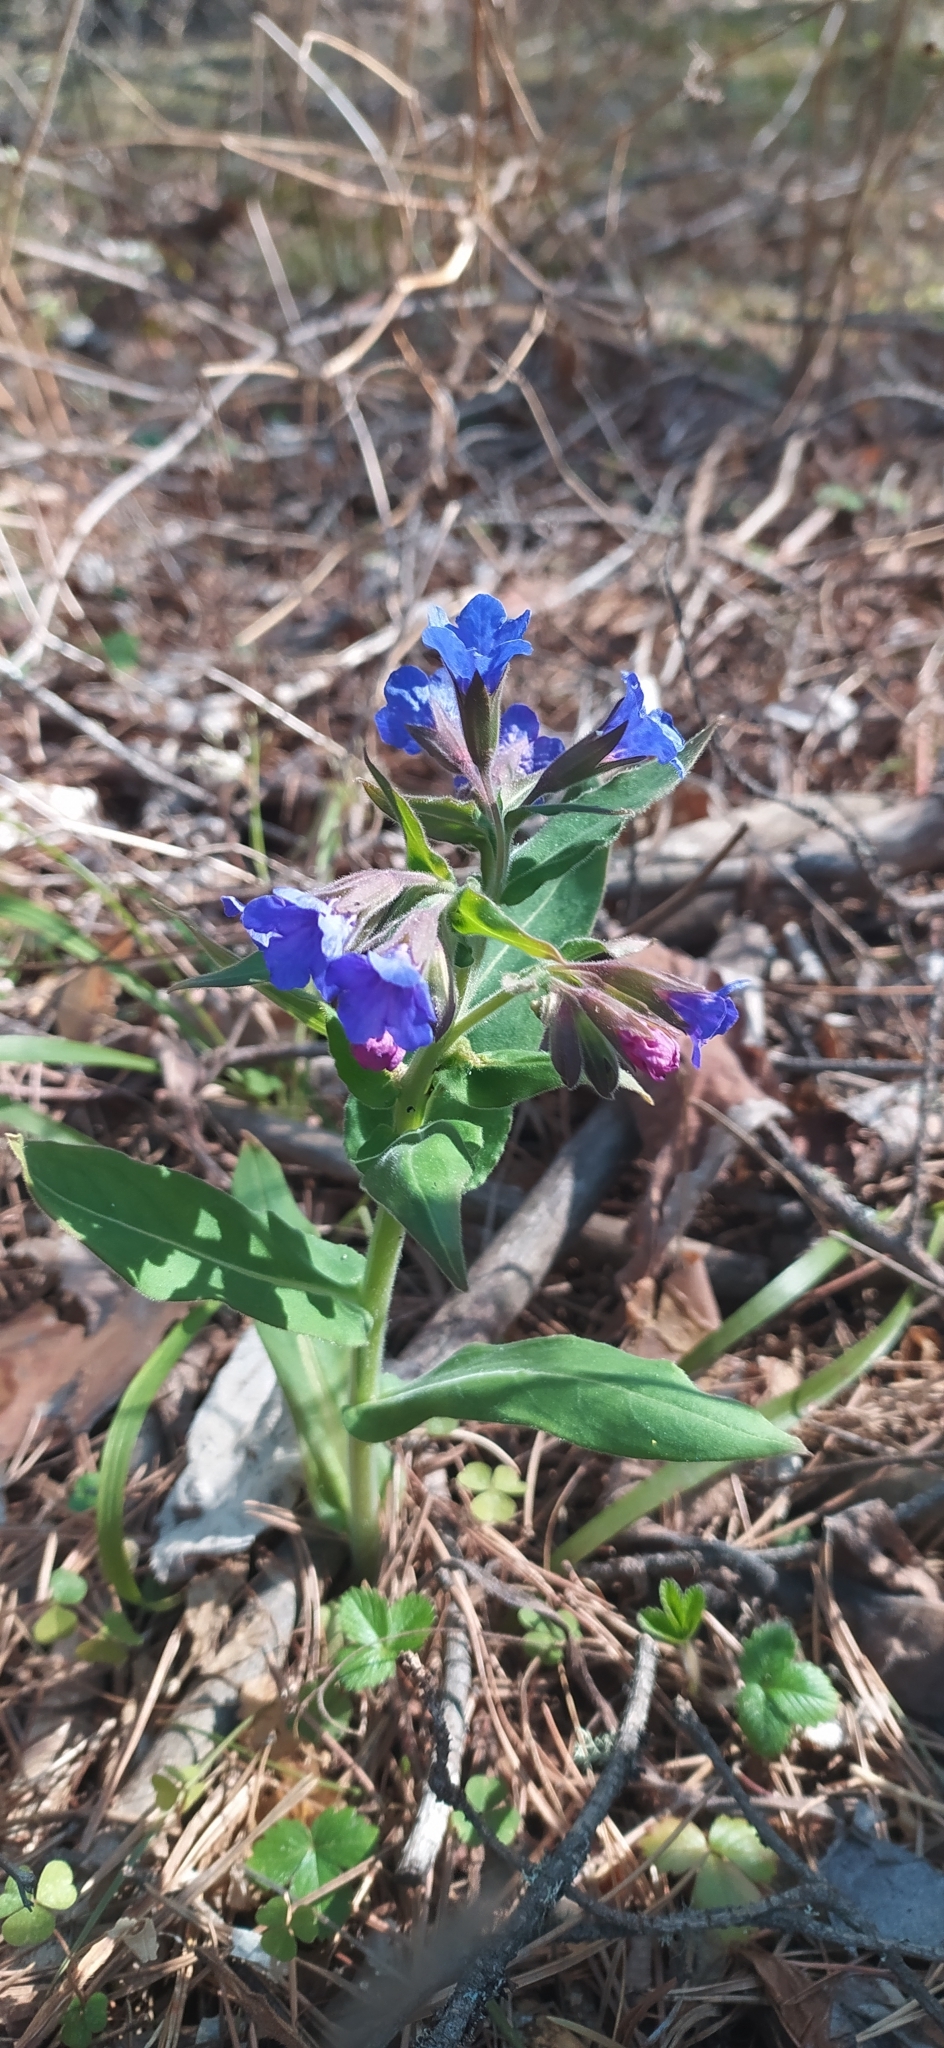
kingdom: Plantae
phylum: Tracheophyta
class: Magnoliopsida
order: Boraginales
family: Boraginaceae
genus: Pulmonaria
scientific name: Pulmonaria mollis
